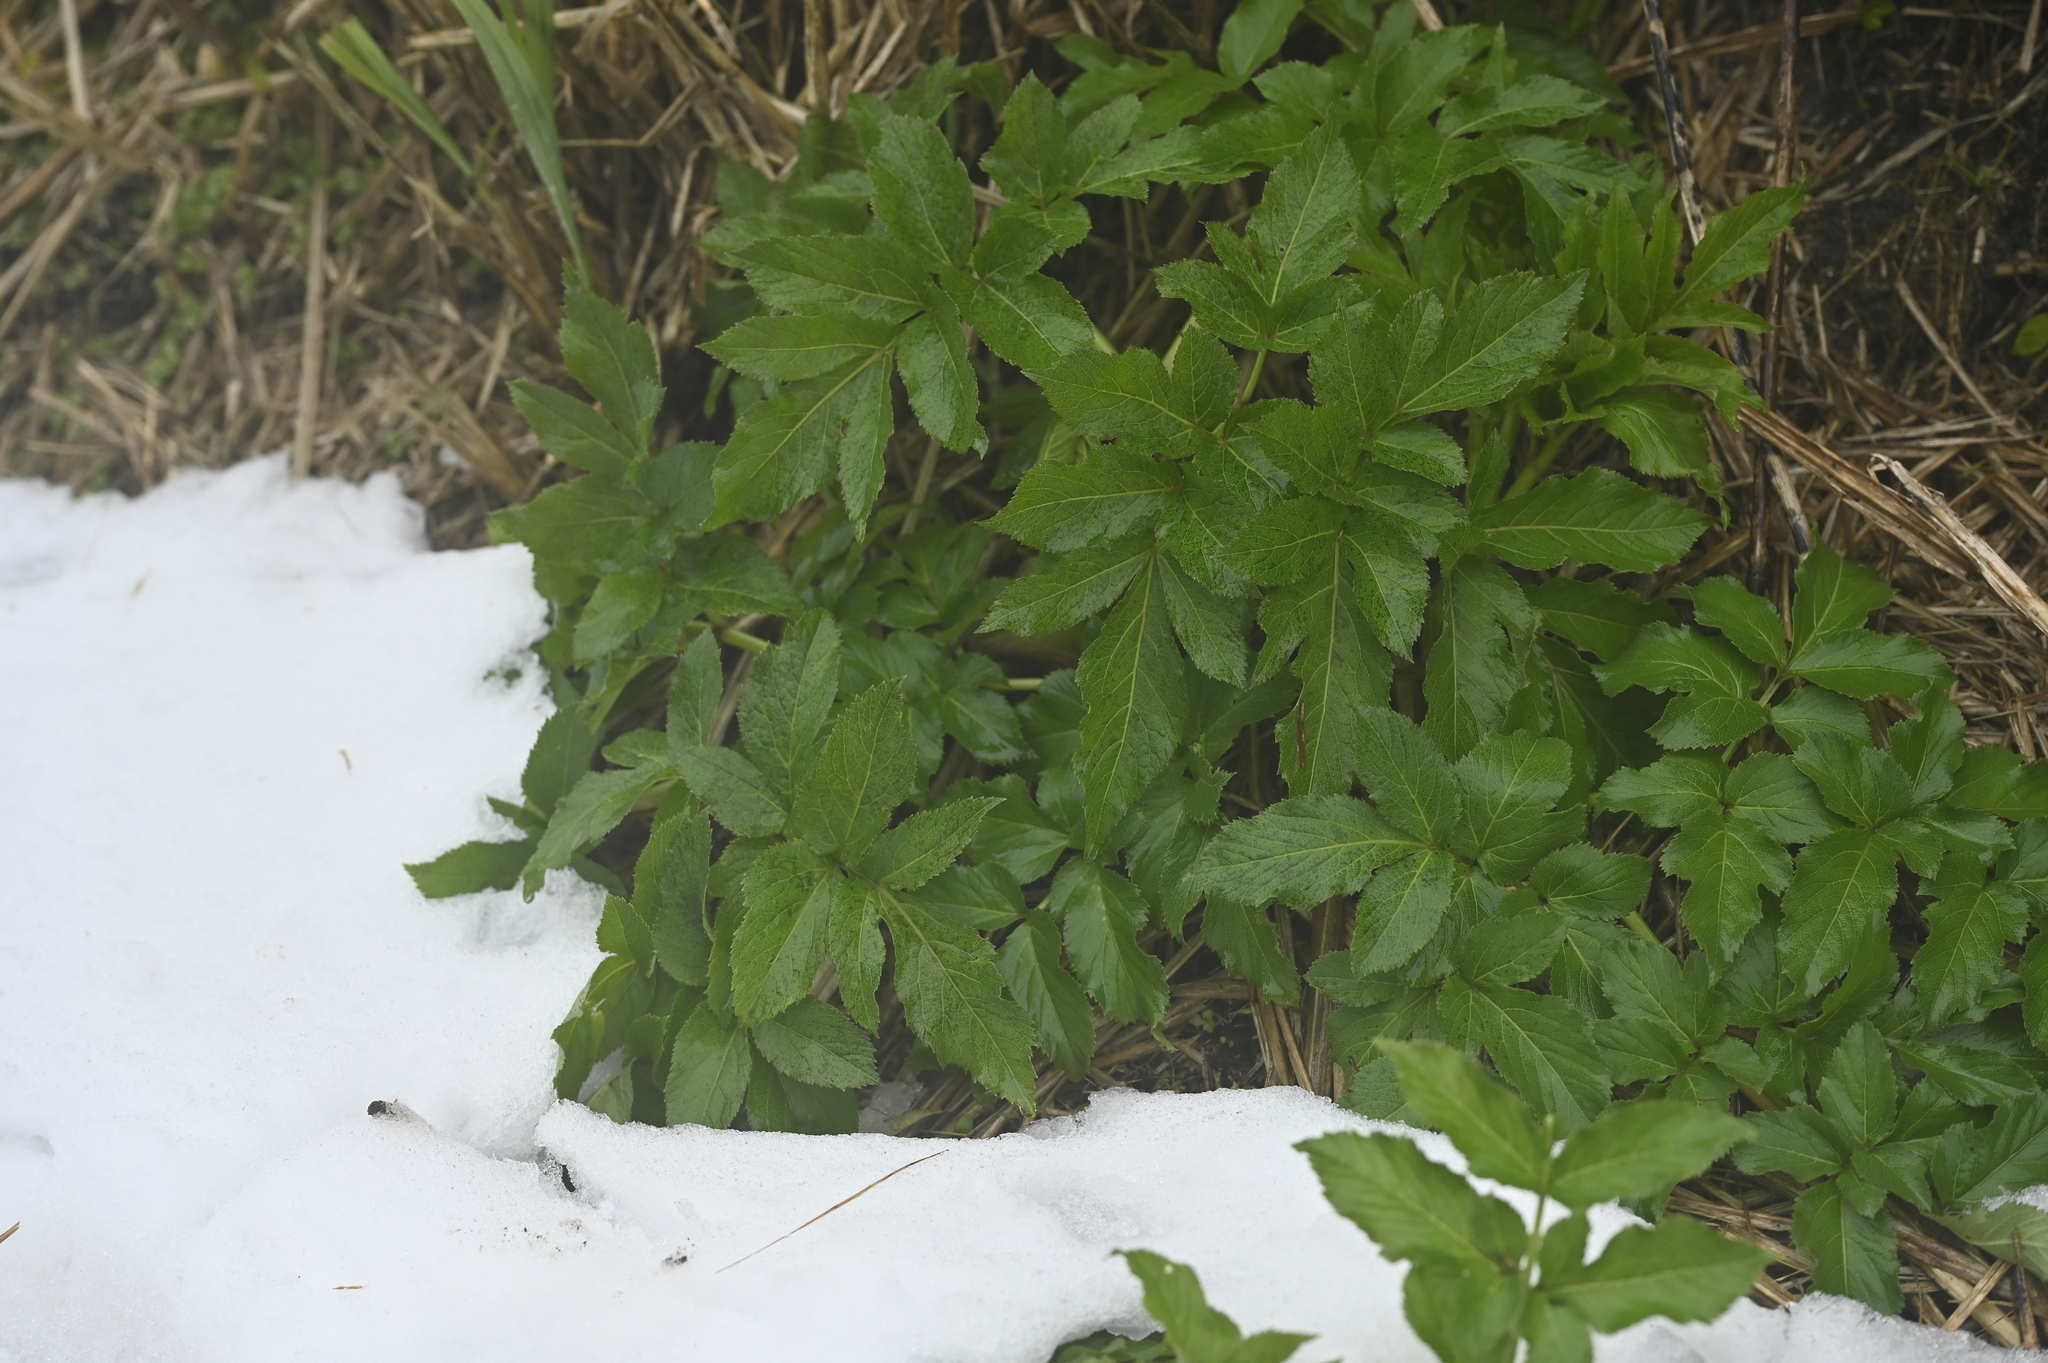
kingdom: Plantae
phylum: Tracheophyta
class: Magnoliopsida
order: Apiales
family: Apiaceae
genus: Angelica
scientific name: Angelica pubescens
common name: Pubescent angelica
